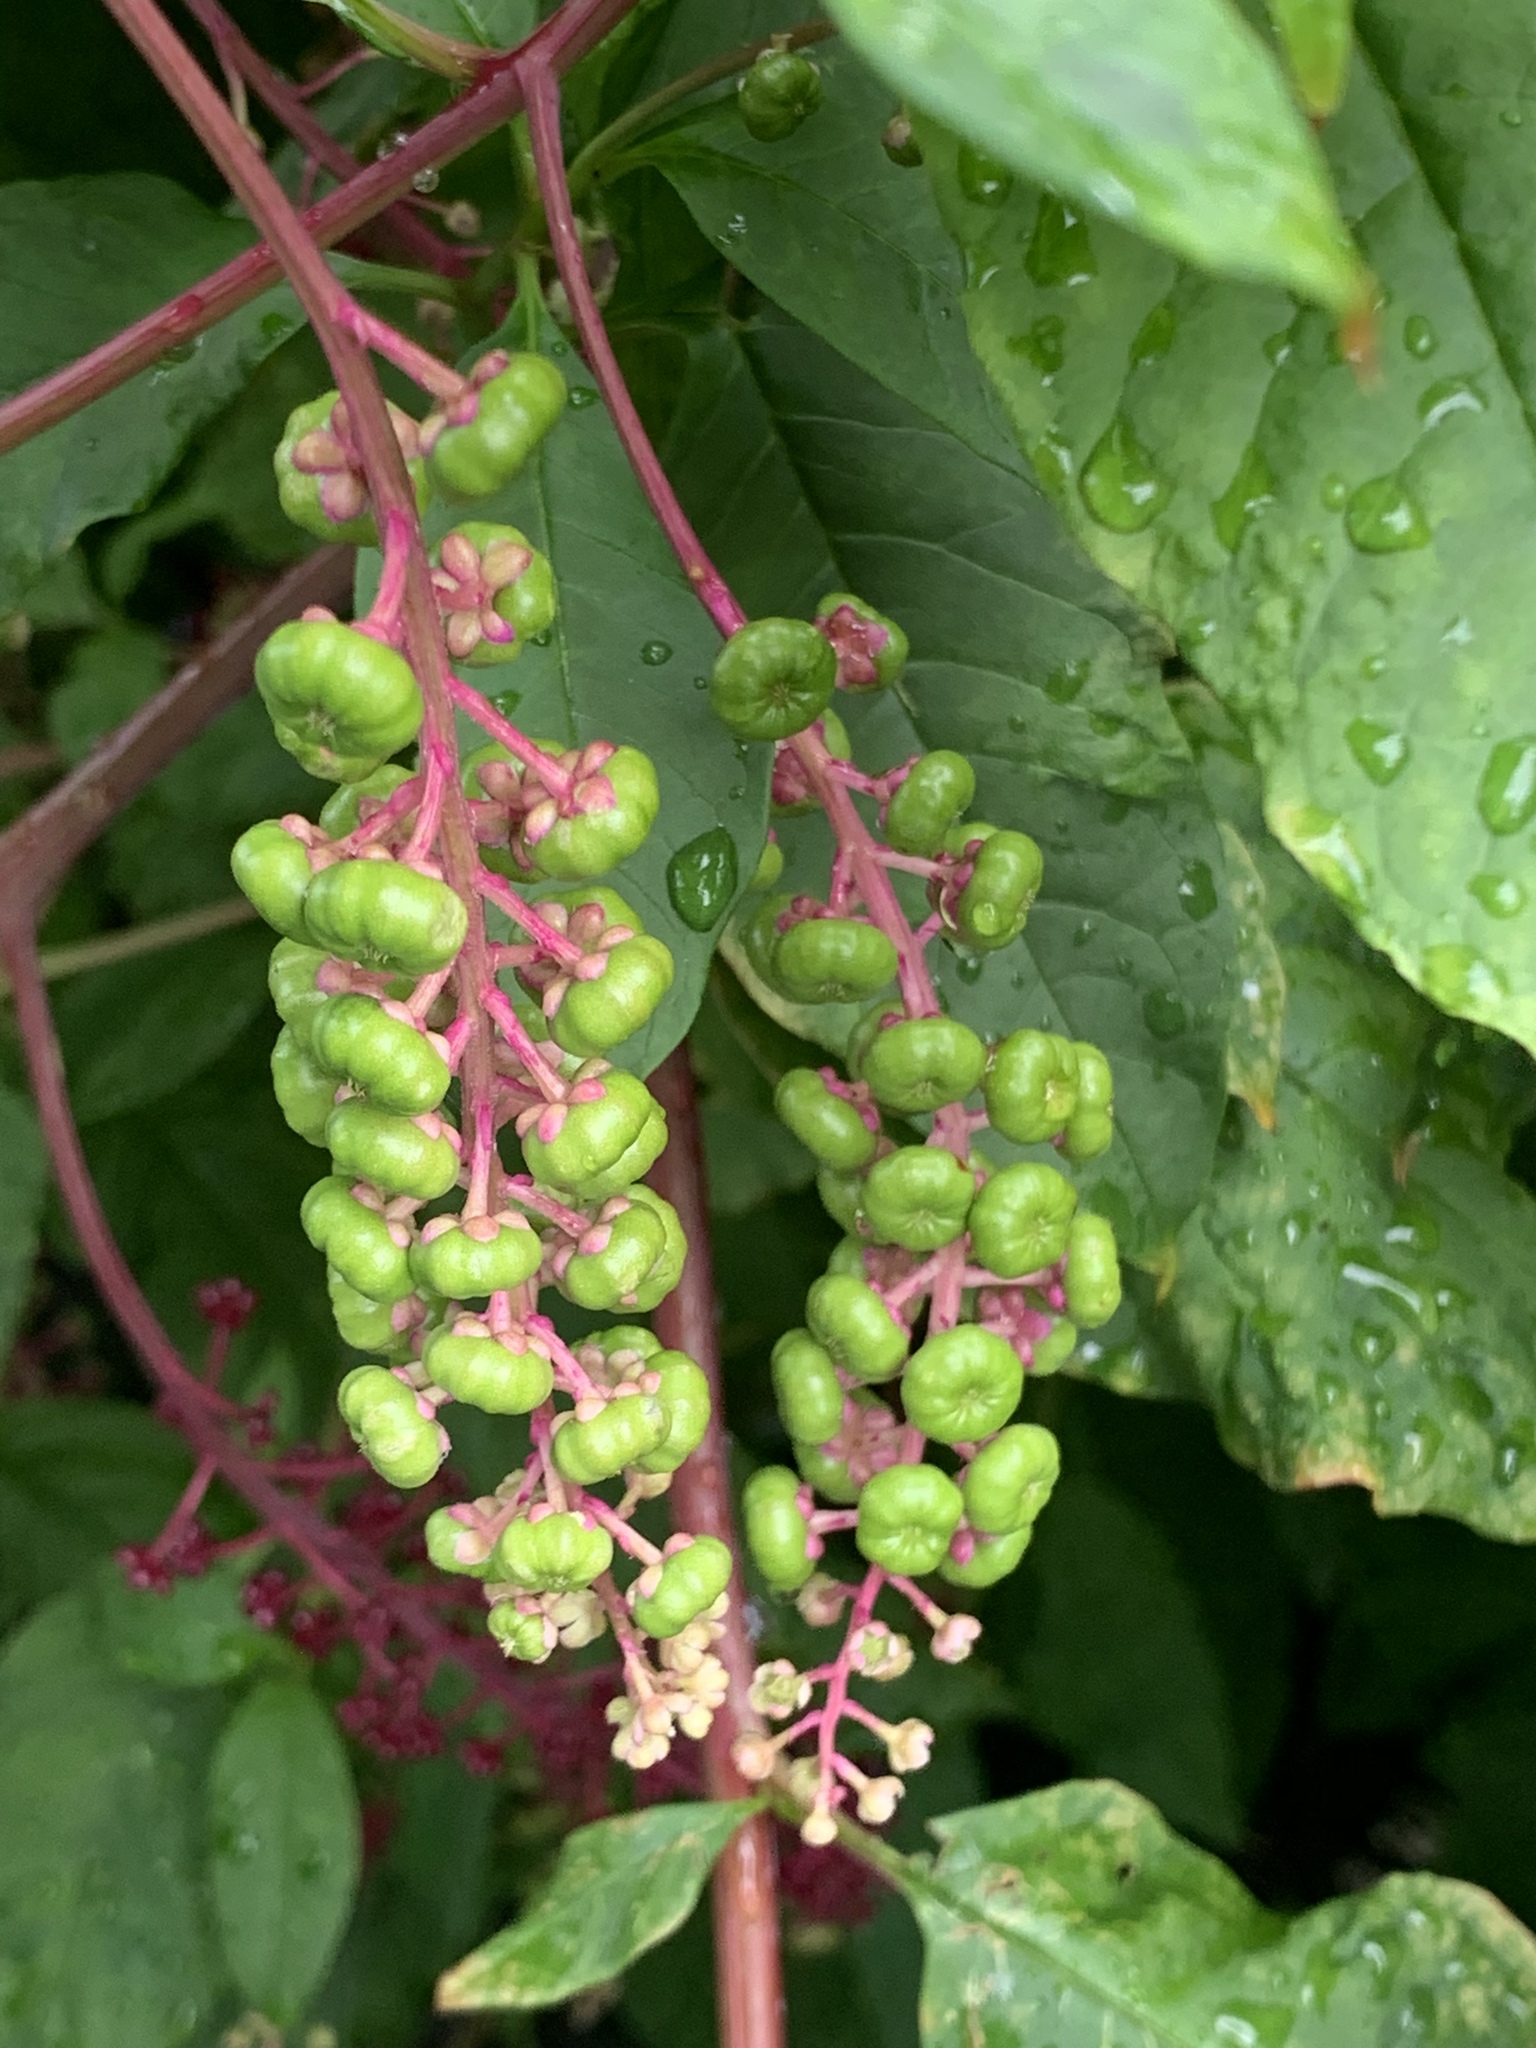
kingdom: Plantae
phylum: Tracheophyta
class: Magnoliopsida
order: Caryophyllales
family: Phytolaccaceae
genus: Phytolacca
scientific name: Phytolacca americana
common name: American pokeweed
